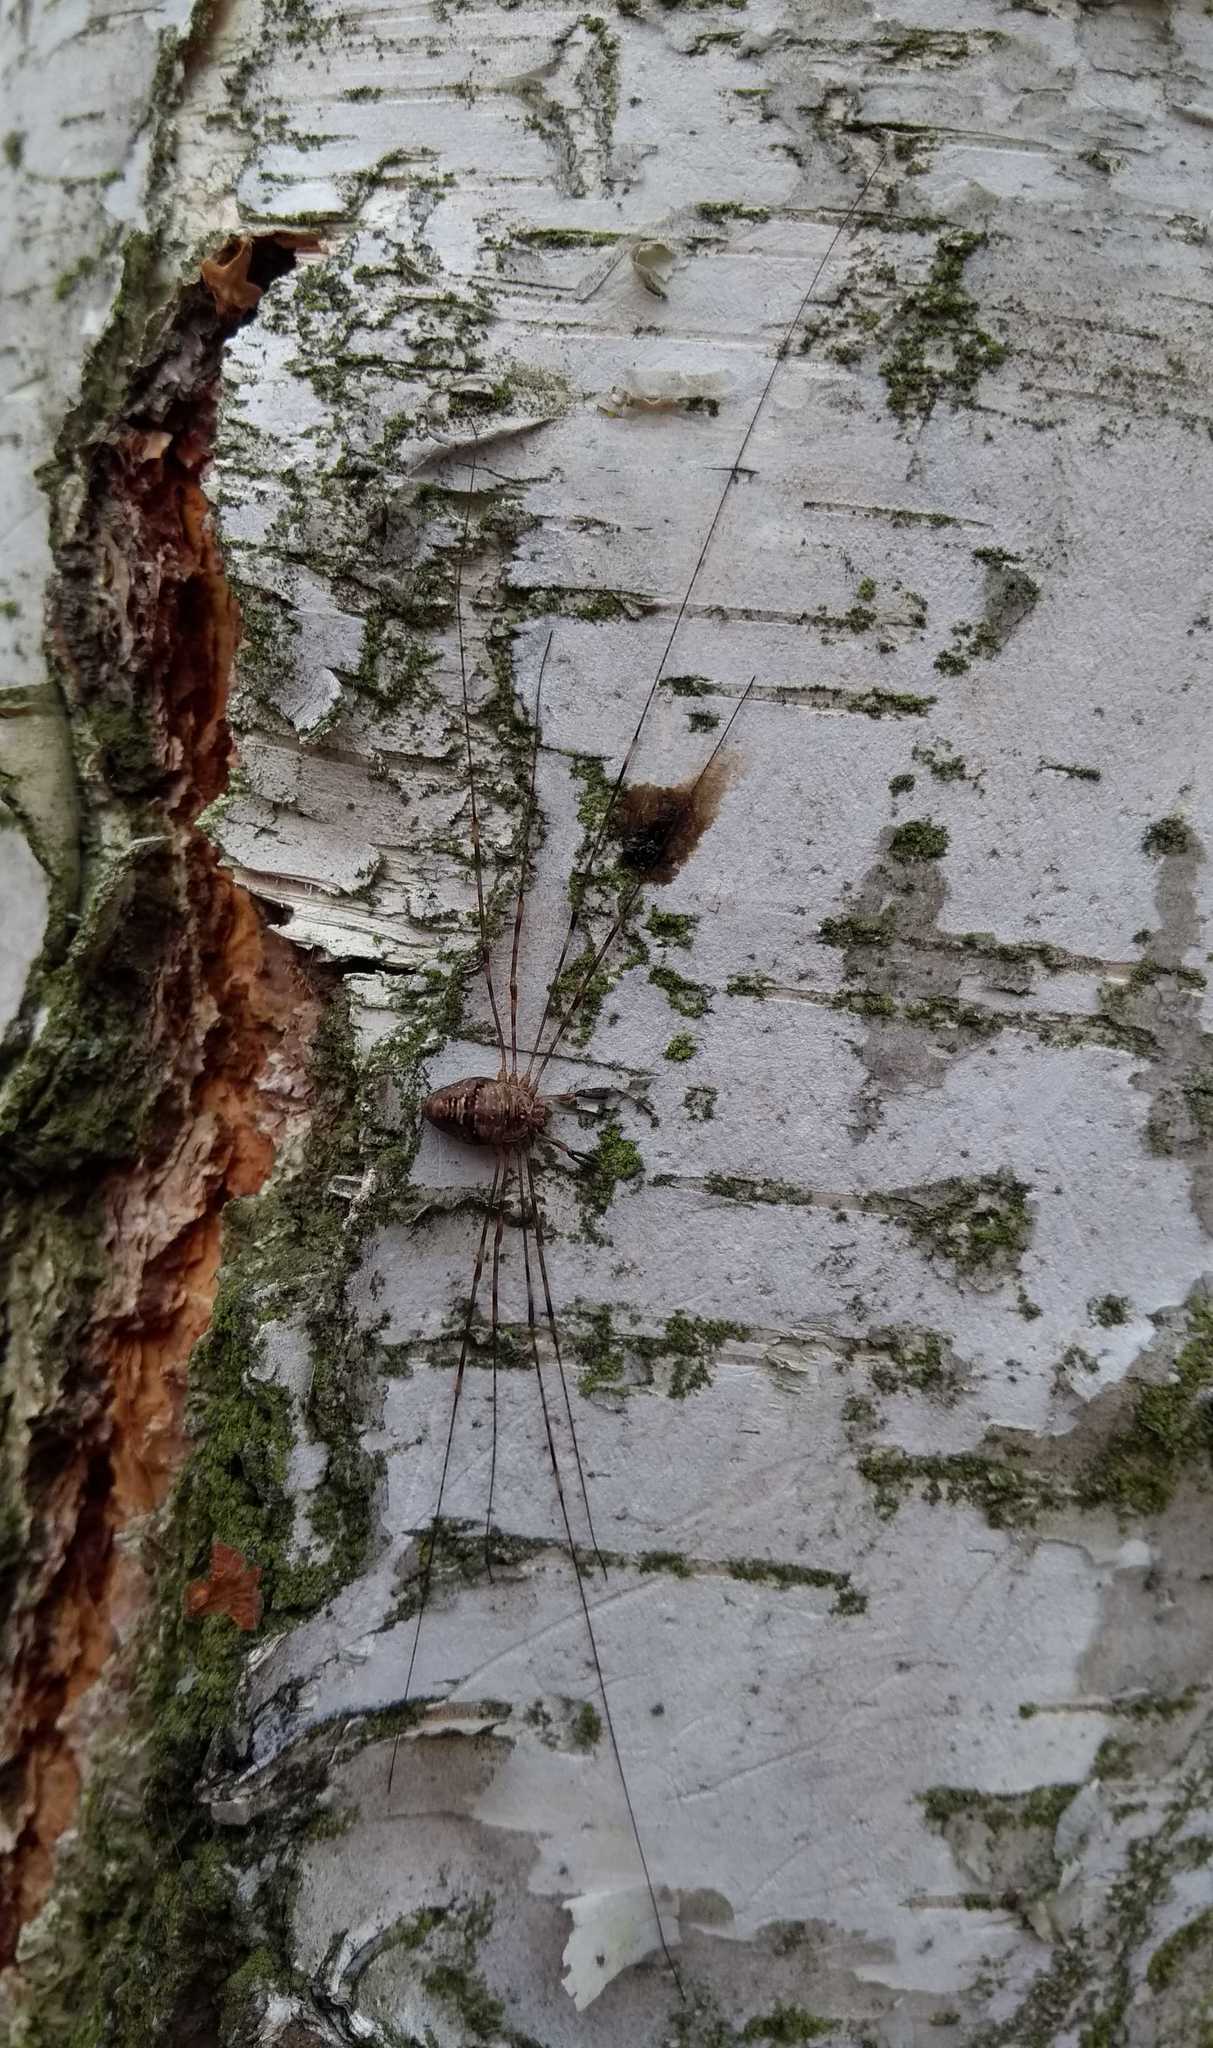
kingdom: Animalia
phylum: Arthropoda
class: Arachnida
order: Opiliones
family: Phalangiidae
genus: Dicranopalpus
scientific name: Dicranopalpus ramosus
